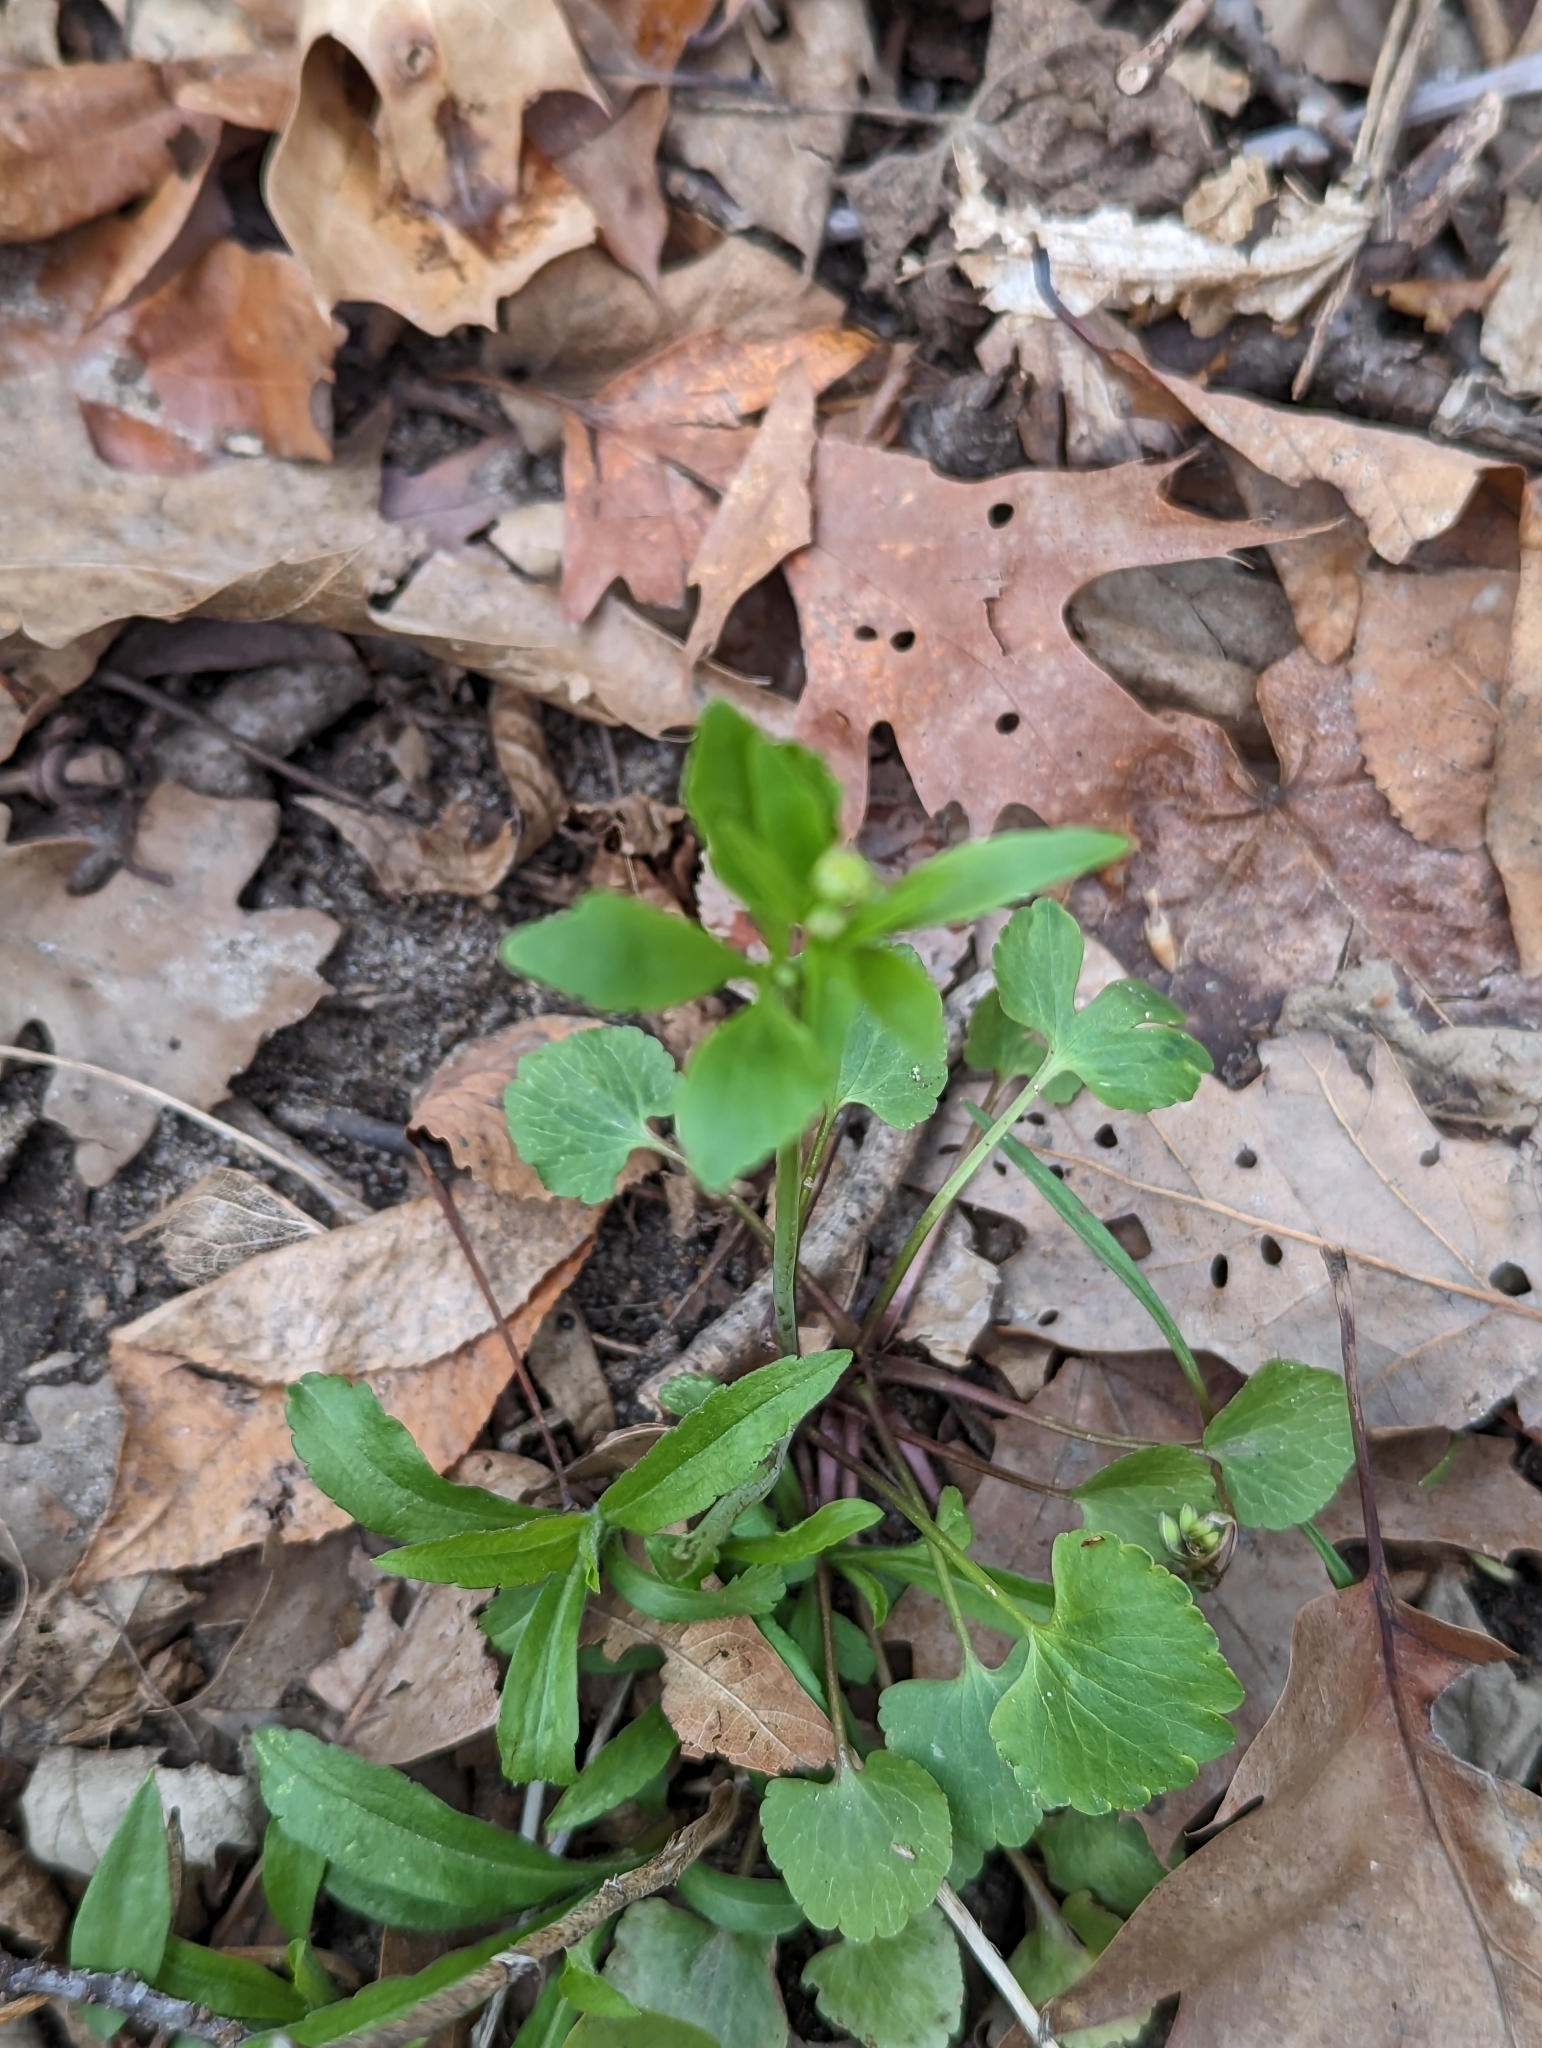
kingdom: Plantae
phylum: Tracheophyta
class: Magnoliopsida
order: Ranunculales
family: Ranunculaceae
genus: Ranunculus
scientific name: Ranunculus abortivus
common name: Early wood buttercup
